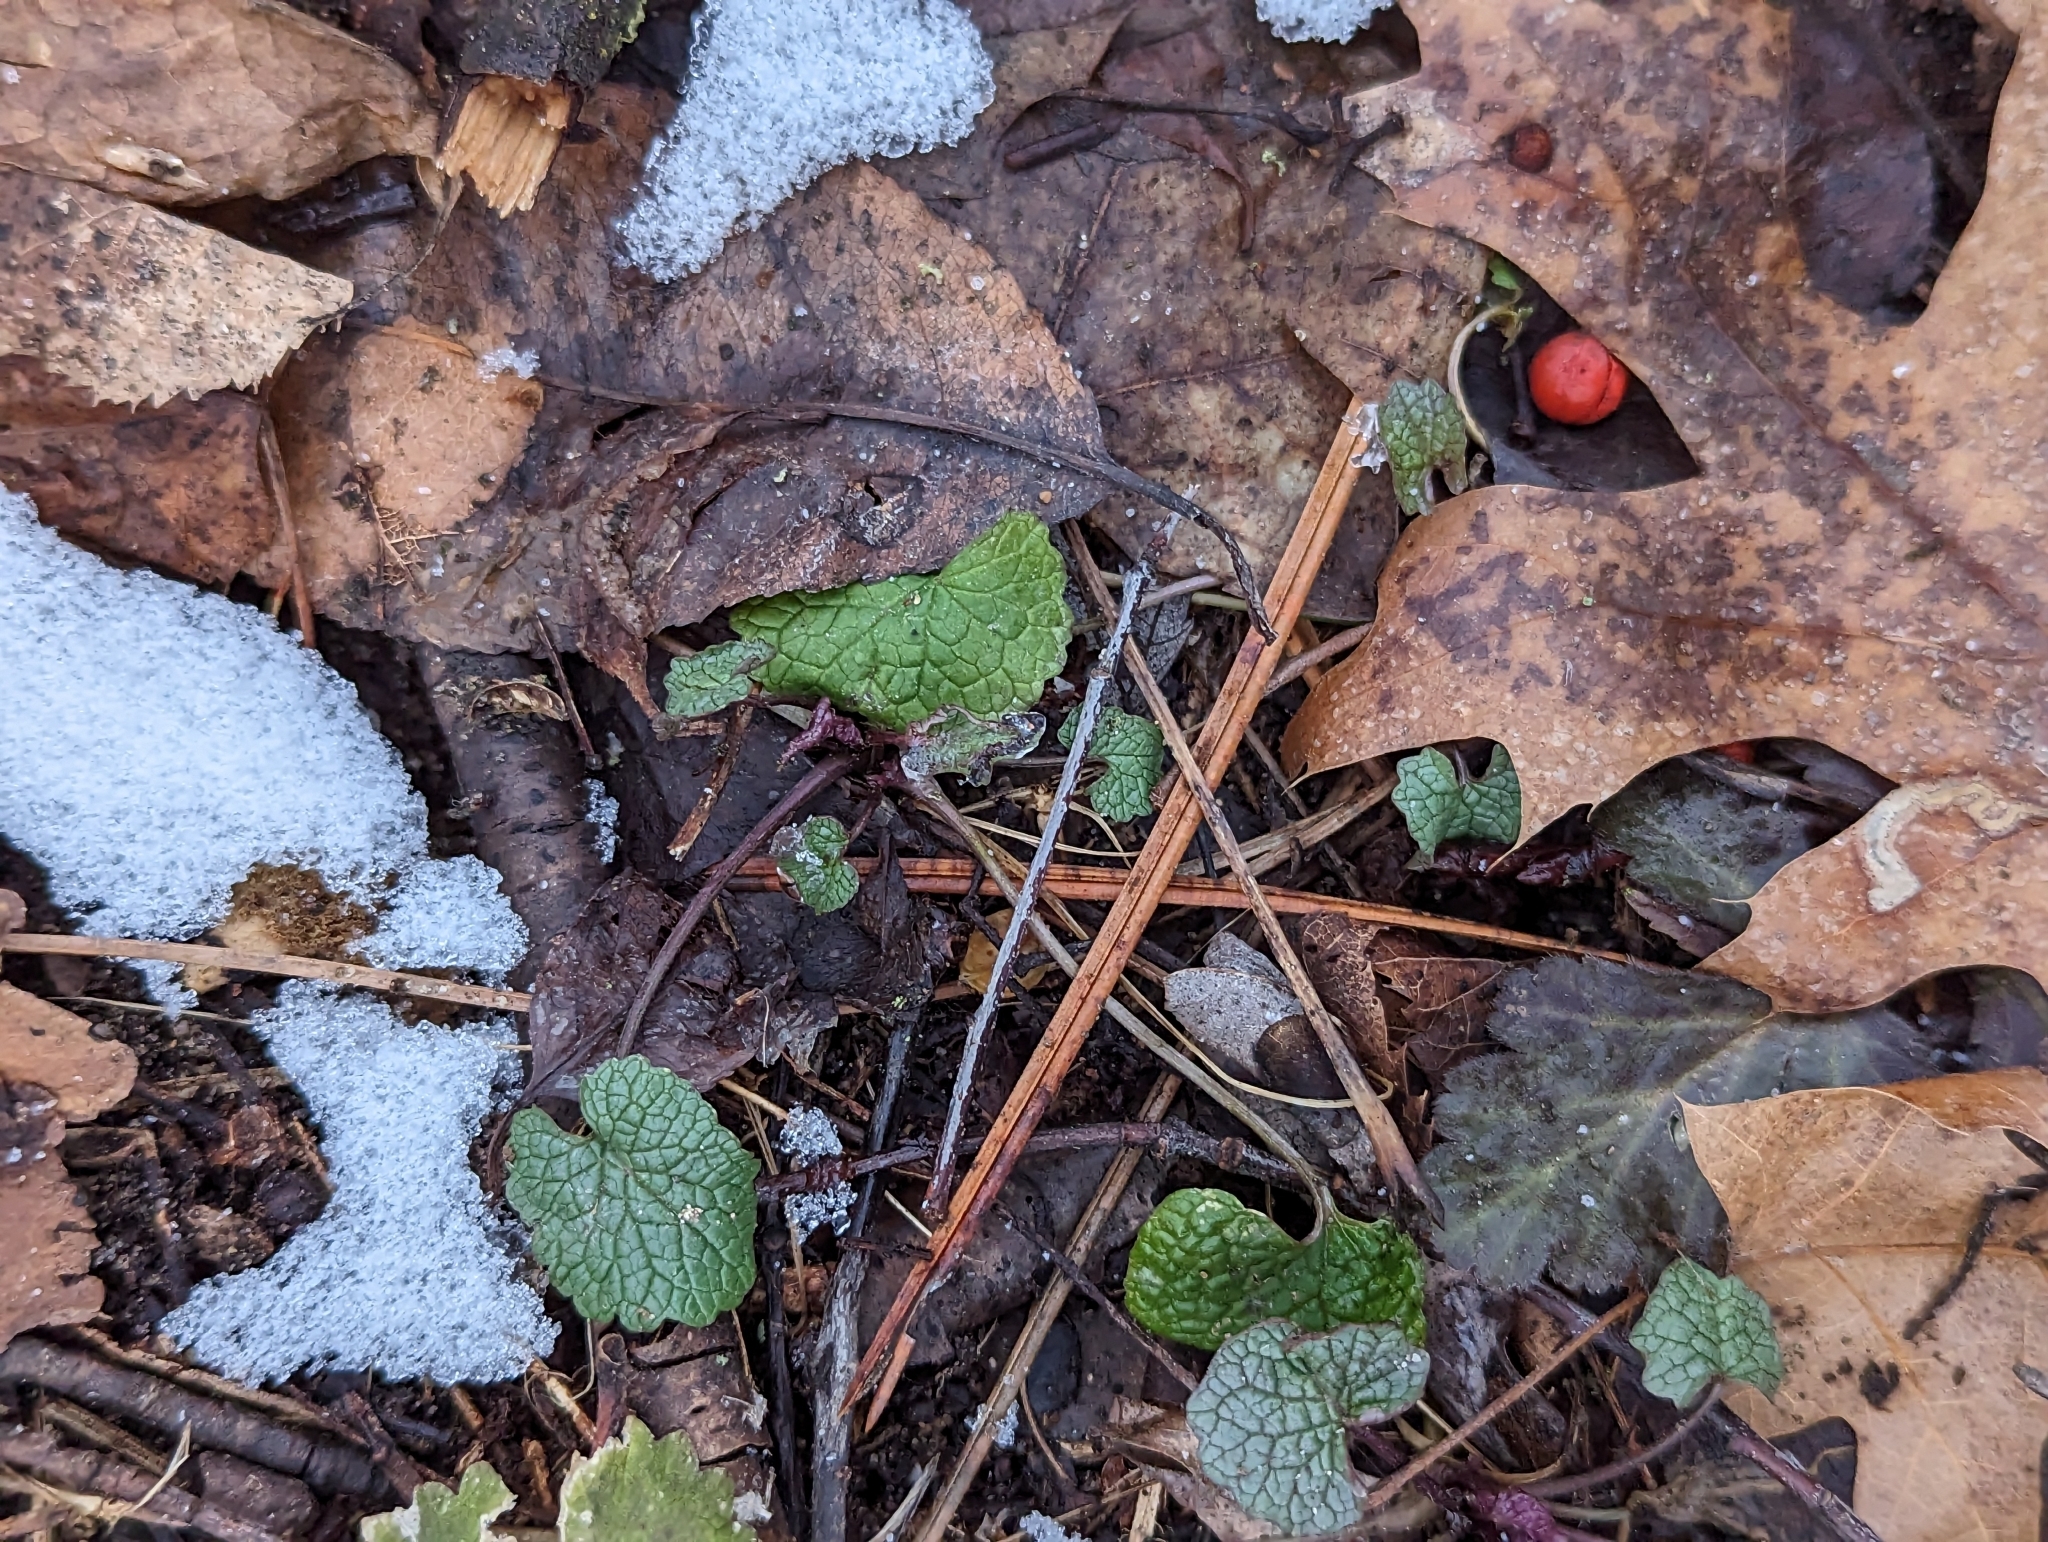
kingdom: Plantae
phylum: Tracheophyta
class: Magnoliopsida
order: Brassicales
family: Brassicaceae
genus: Alliaria
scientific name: Alliaria petiolata
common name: Garlic mustard
